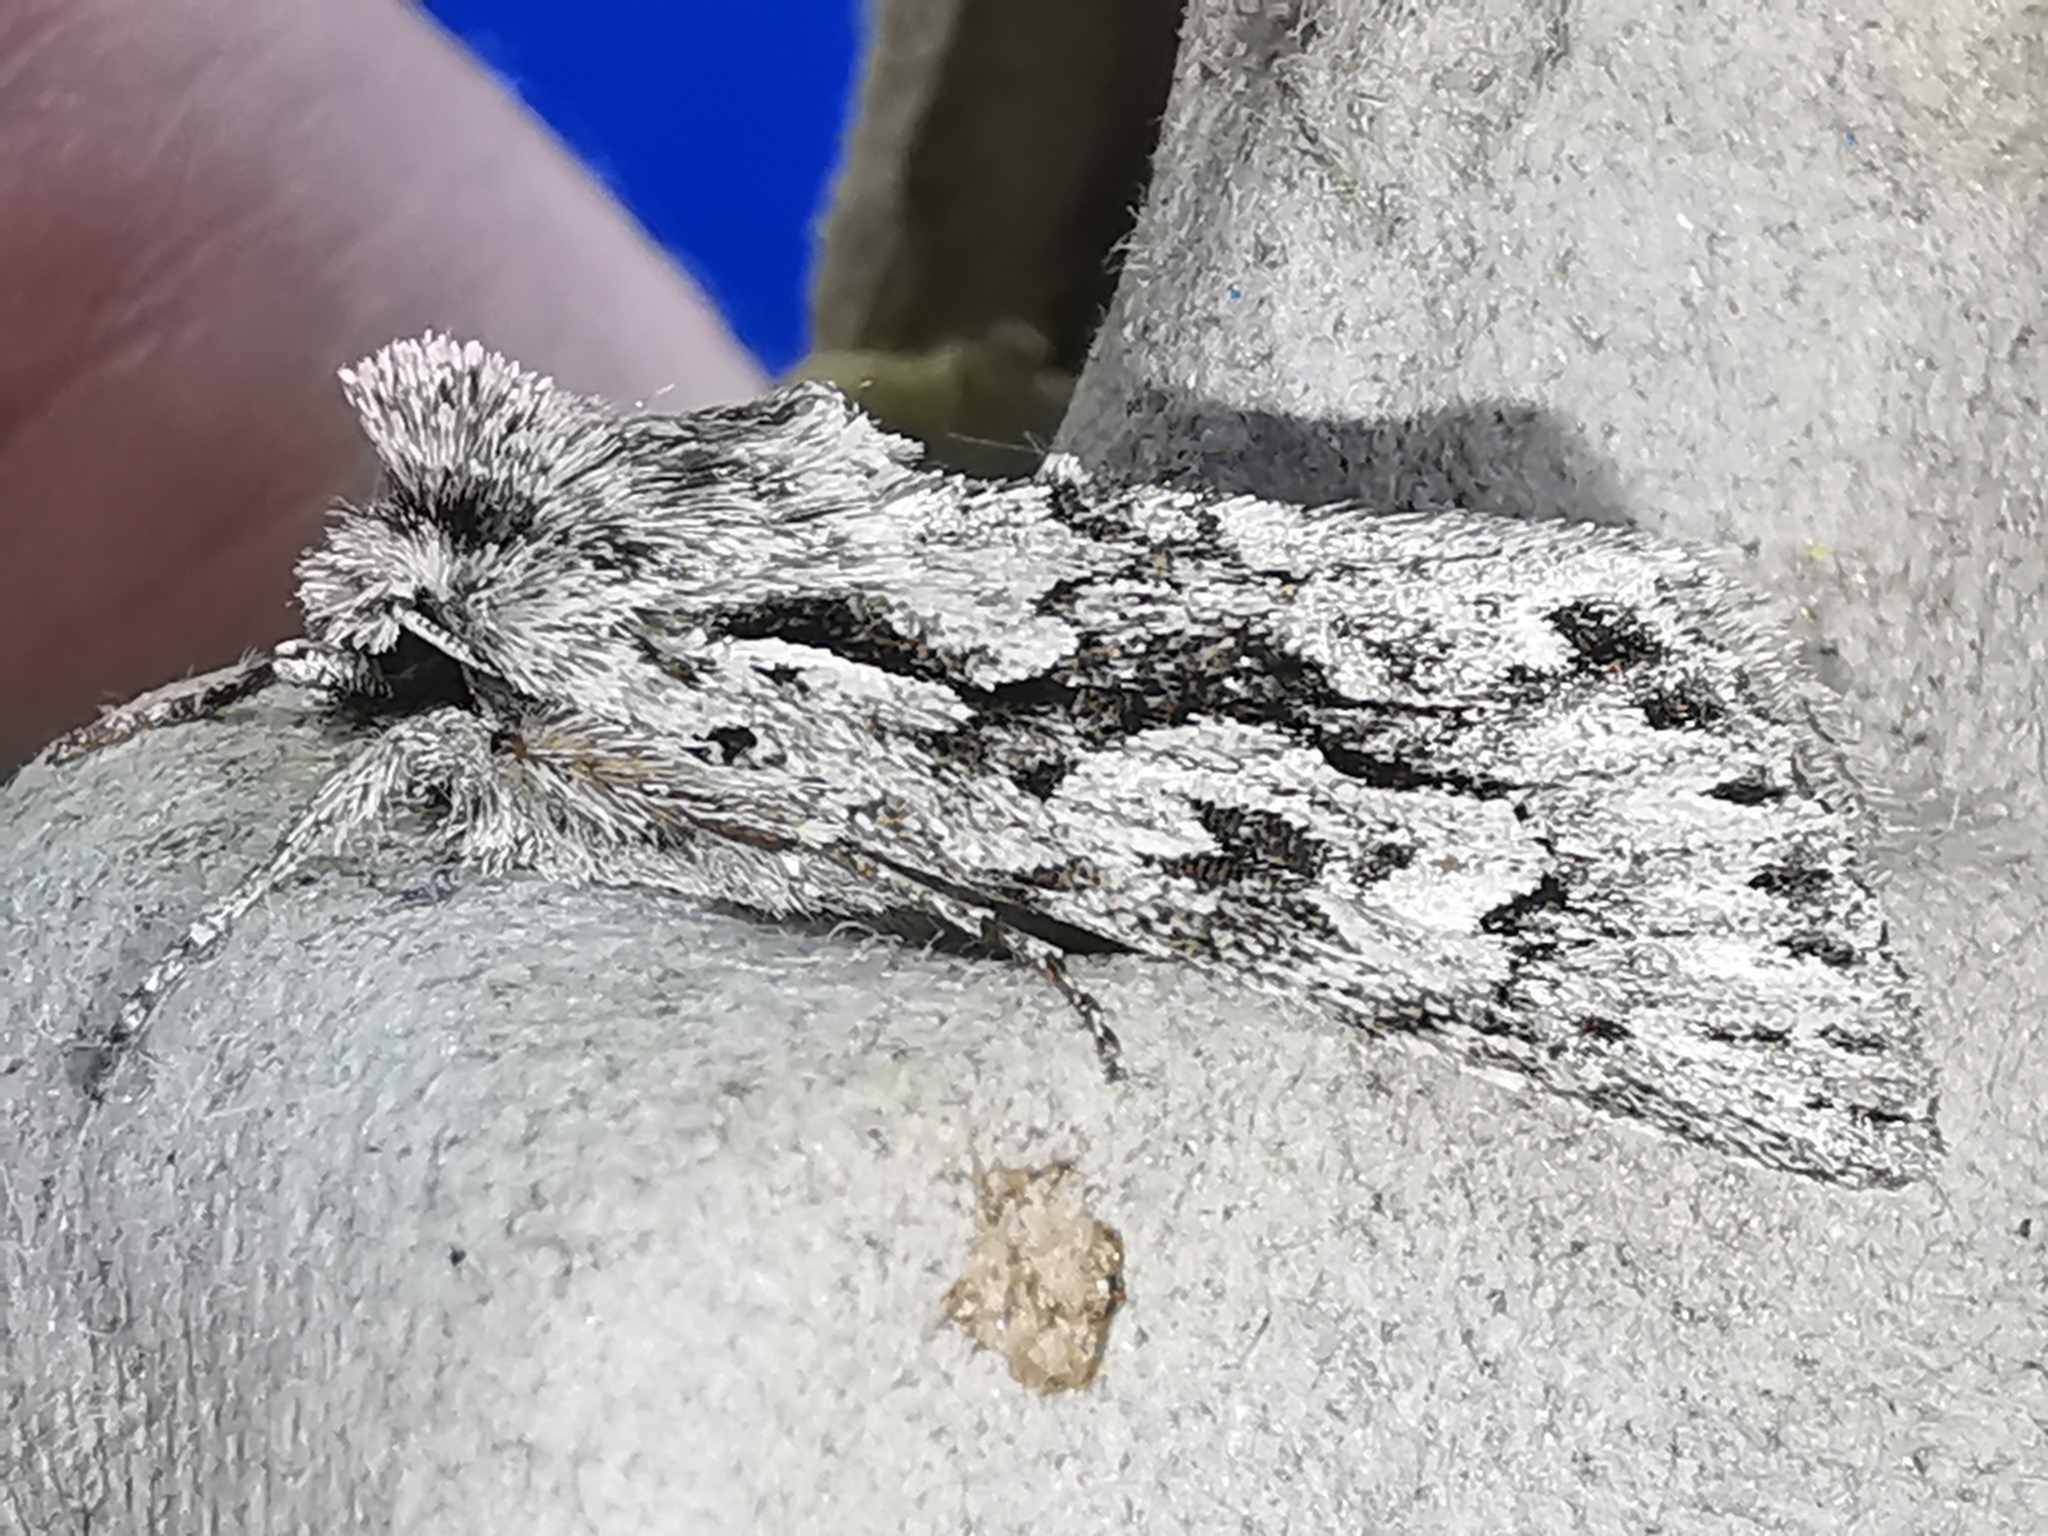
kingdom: Animalia
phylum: Arthropoda
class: Insecta
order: Lepidoptera
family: Noctuidae
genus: Xylocampa
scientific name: Xylocampa areola
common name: Early grey
